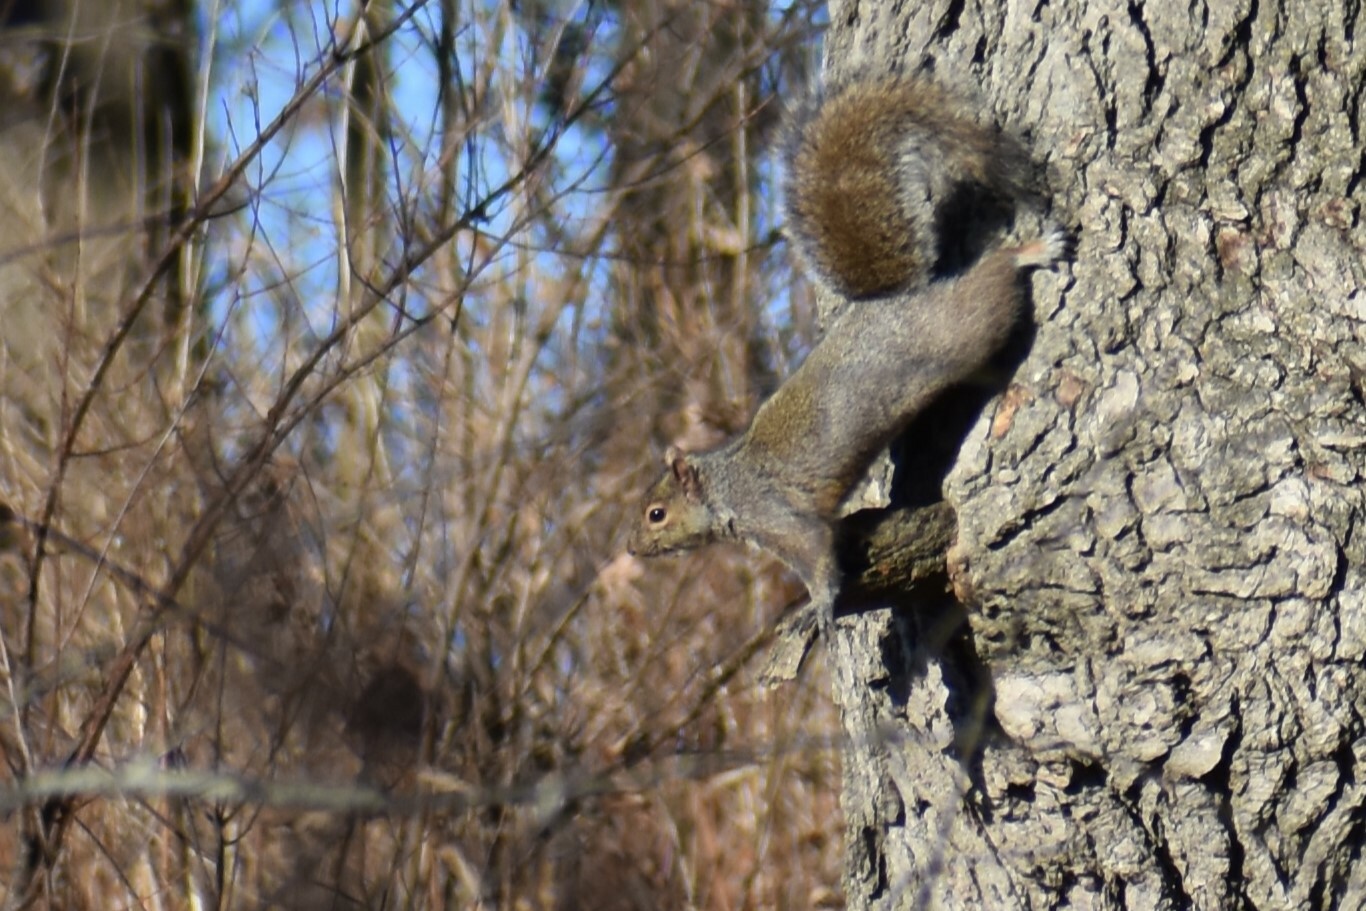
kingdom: Animalia
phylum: Chordata
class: Mammalia
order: Rodentia
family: Sciuridae
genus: Sciurus
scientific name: Sciurus carolinensis
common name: Eastern gray squirrel
